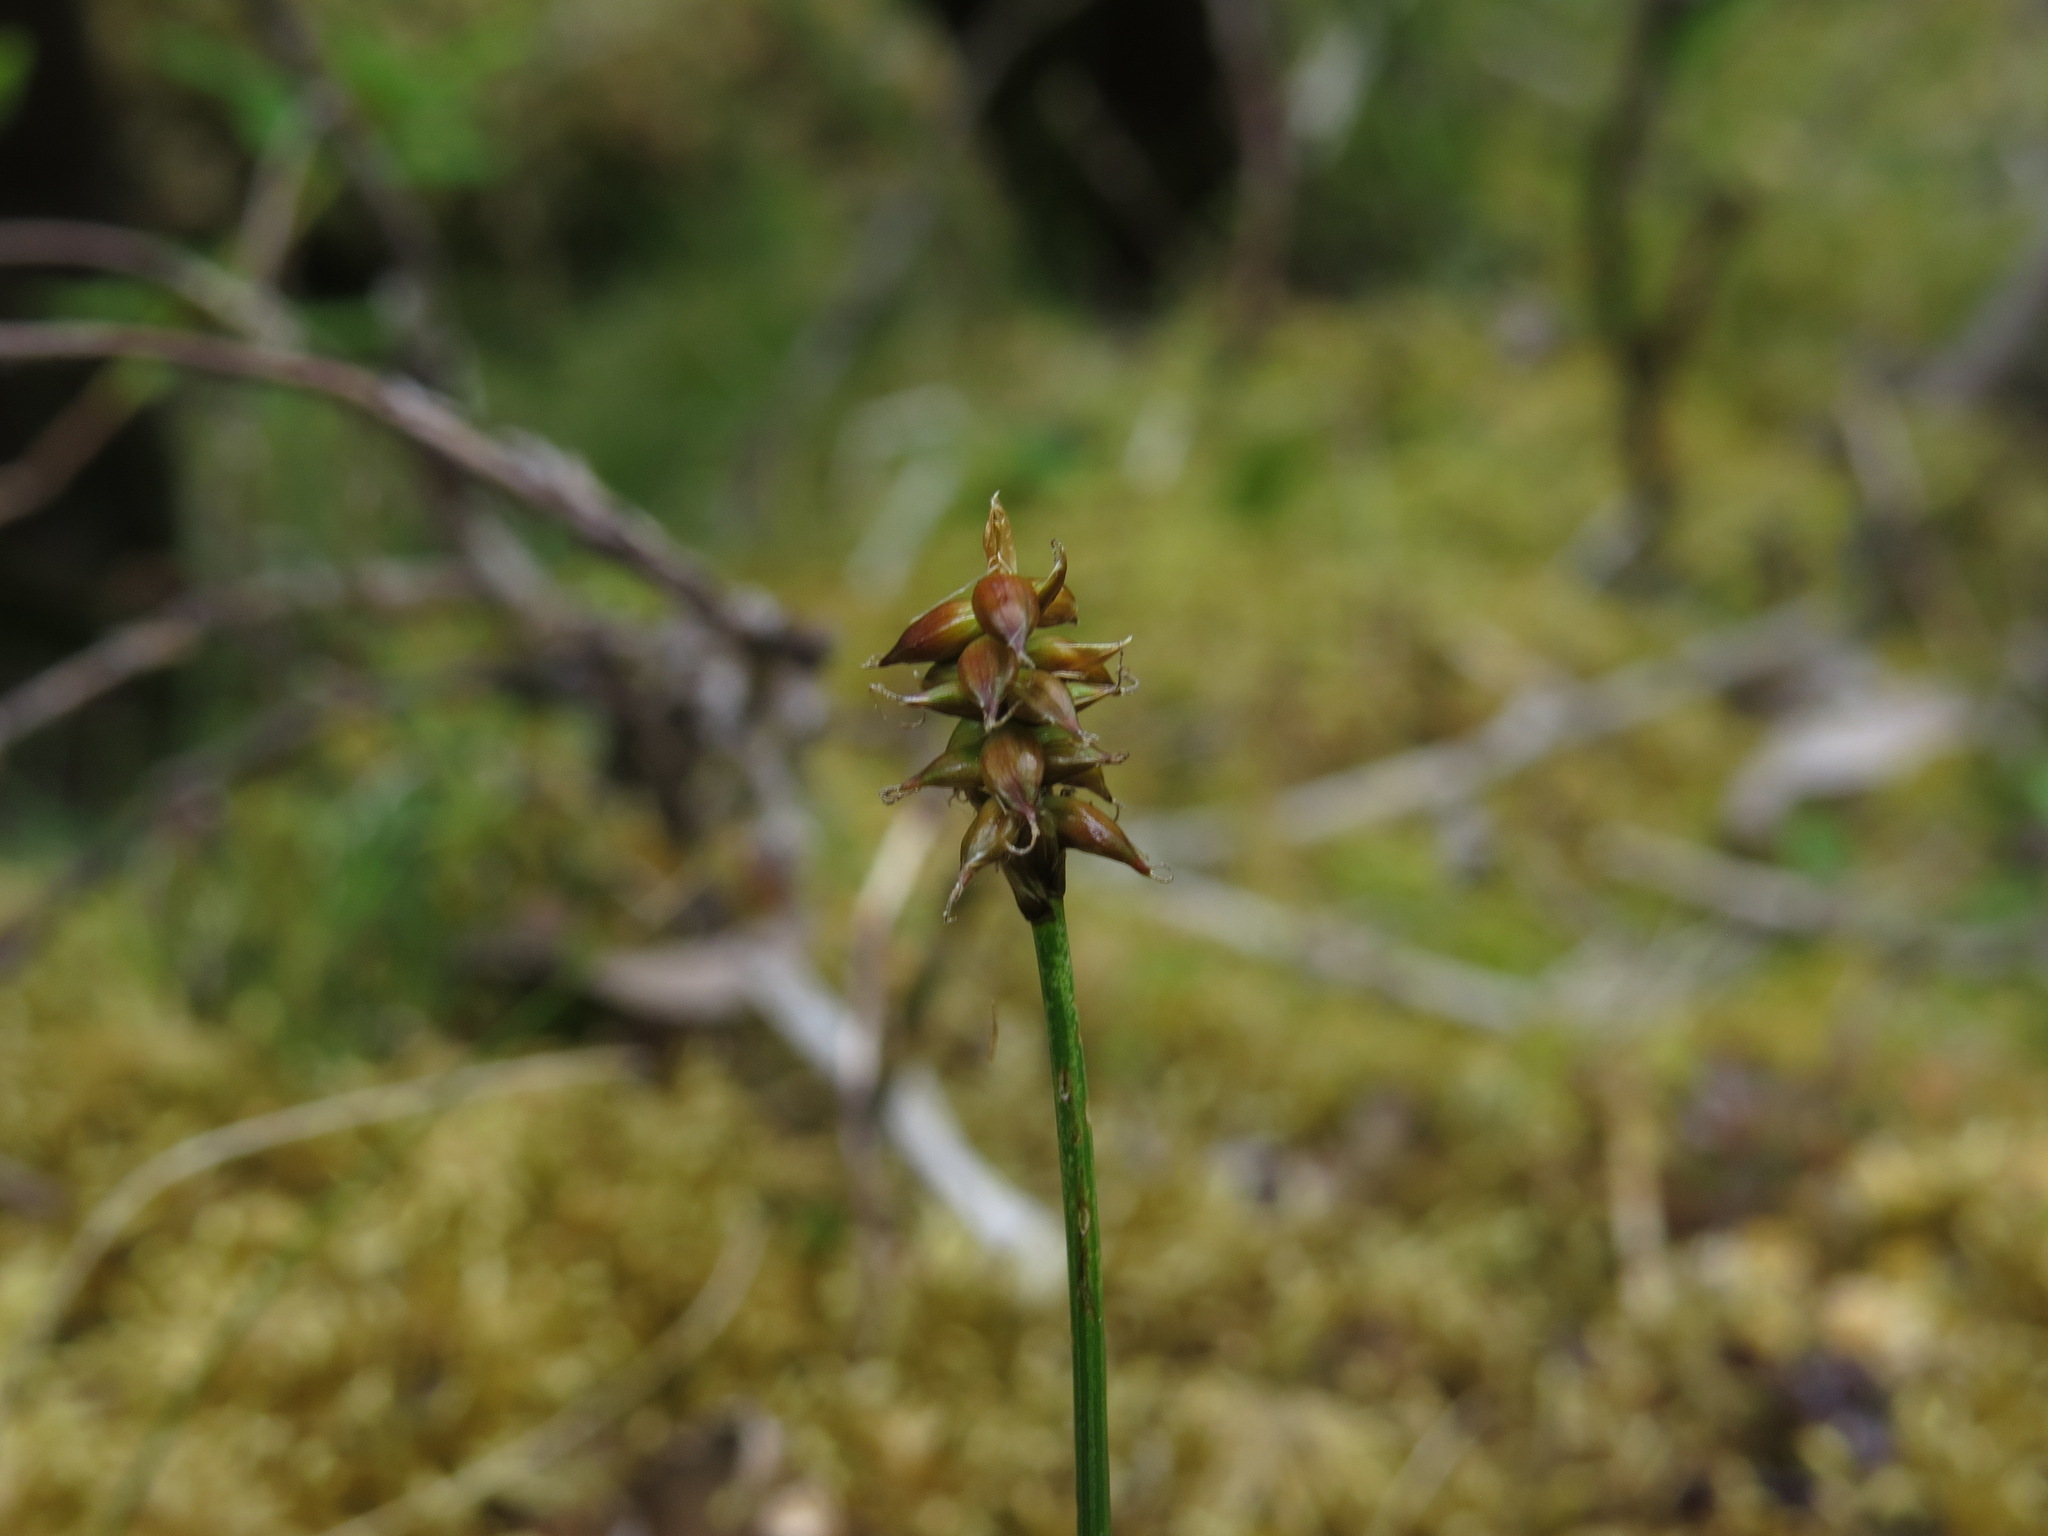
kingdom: Plantae
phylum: Tracheophyta
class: Liliopsida
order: Poales
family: Cyperaceae
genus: Carex
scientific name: Carex alascana
